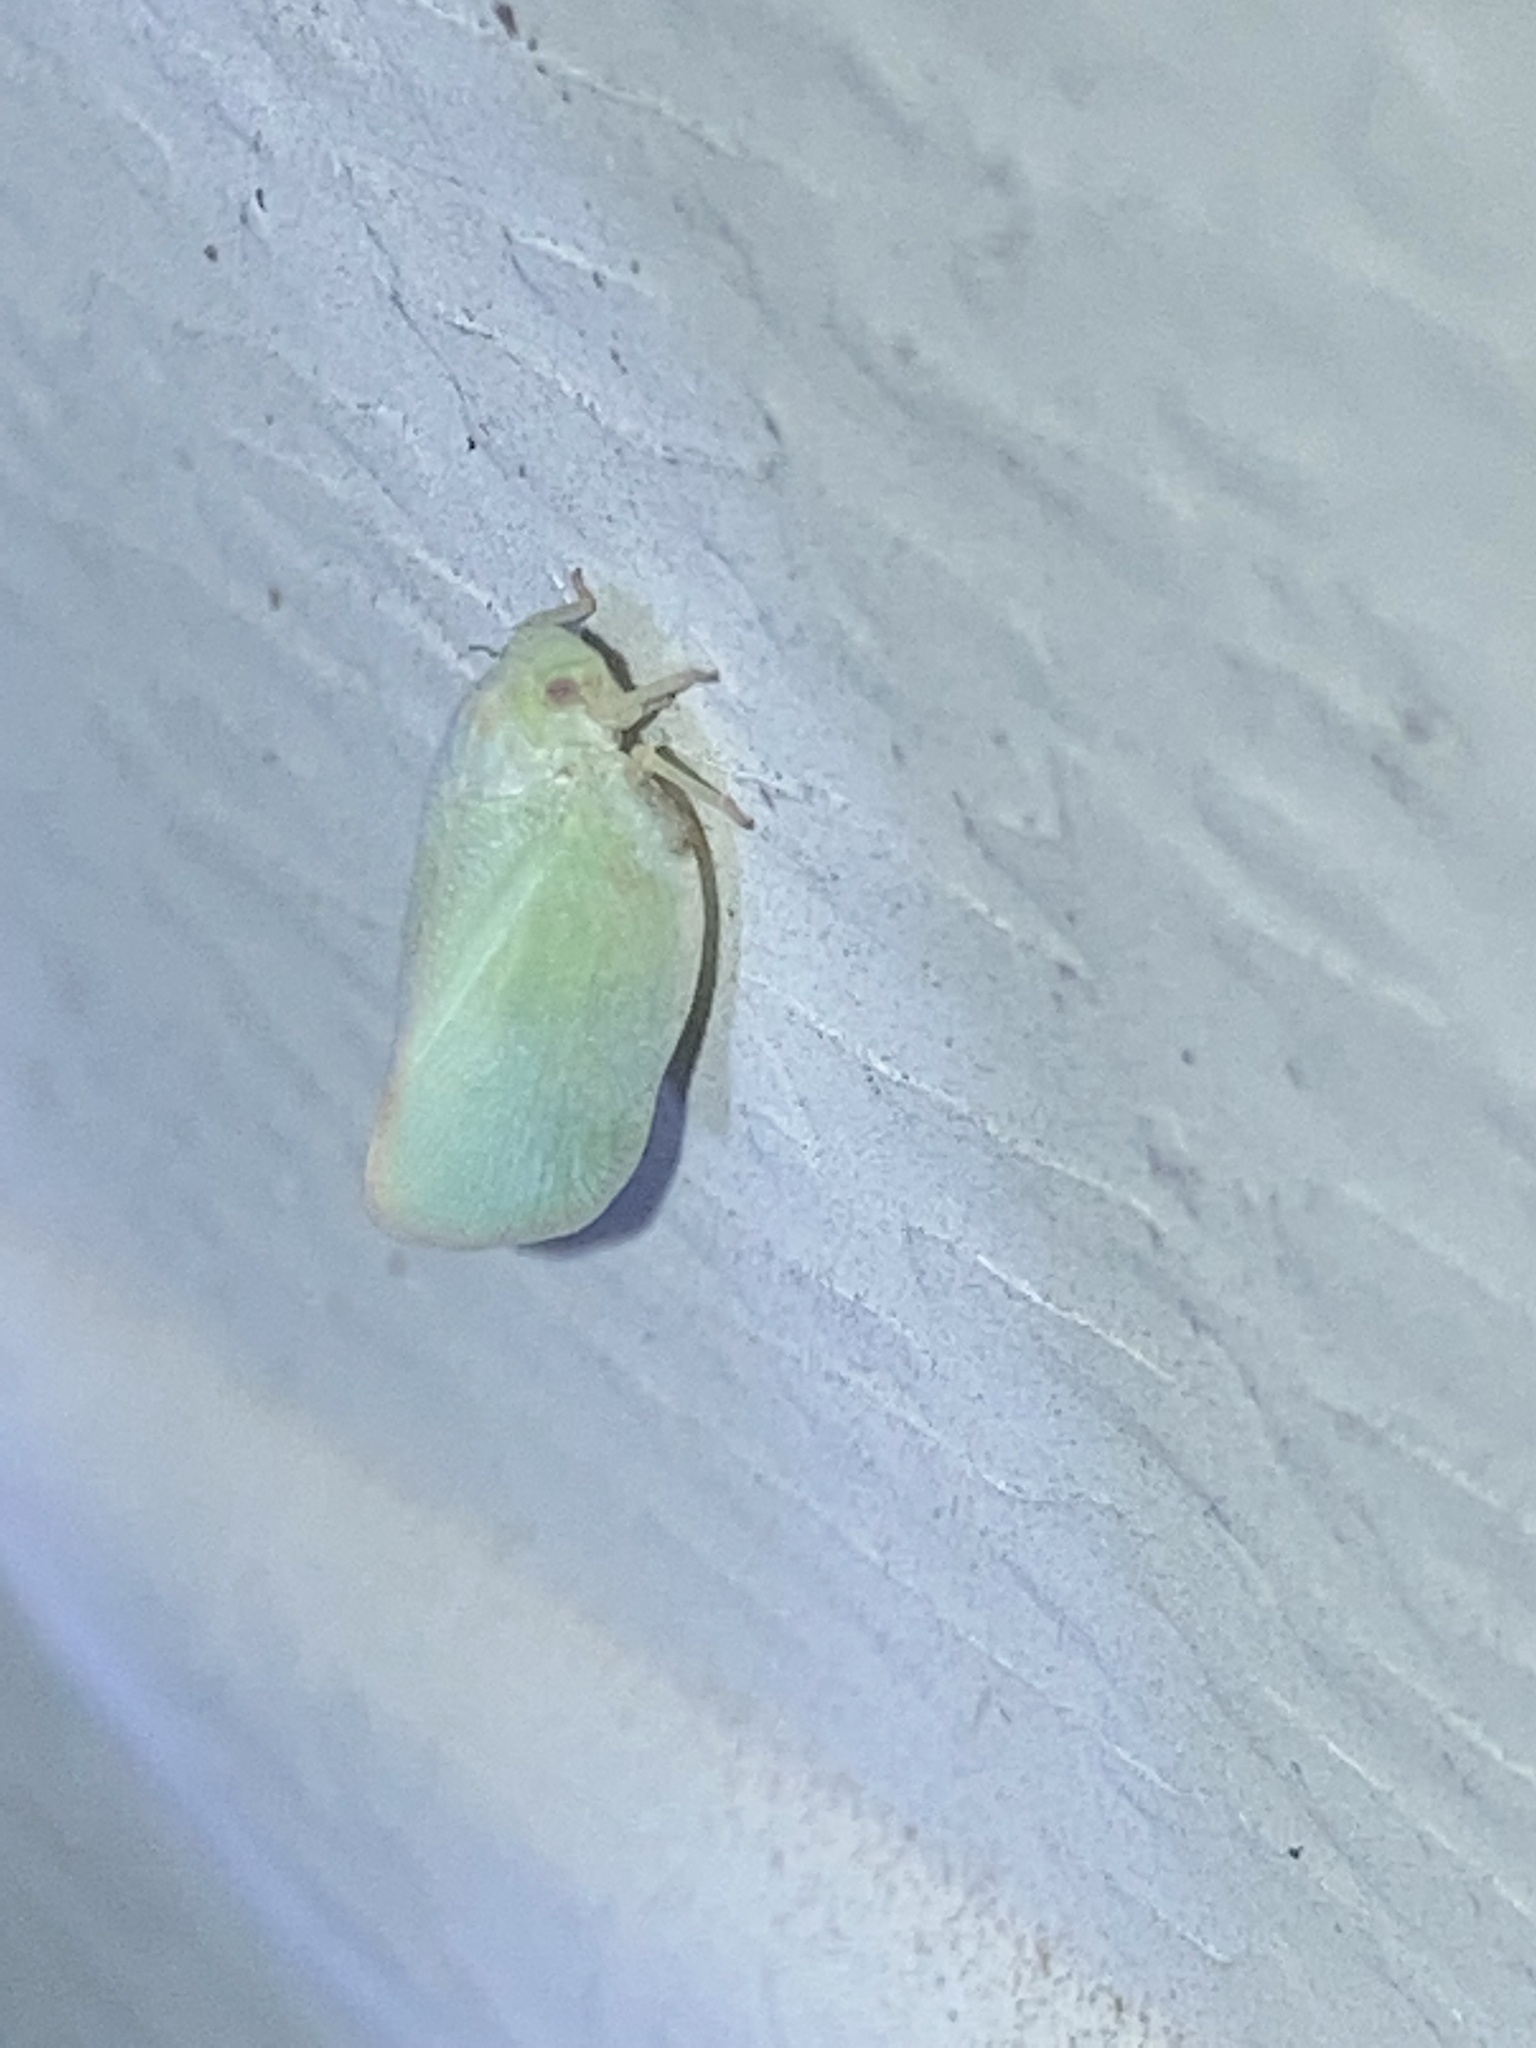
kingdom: Animalia
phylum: Arthropoda
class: Insecta
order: Hemiptera
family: Flatidae
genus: Ormenoides
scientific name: Ormenoides venusta
